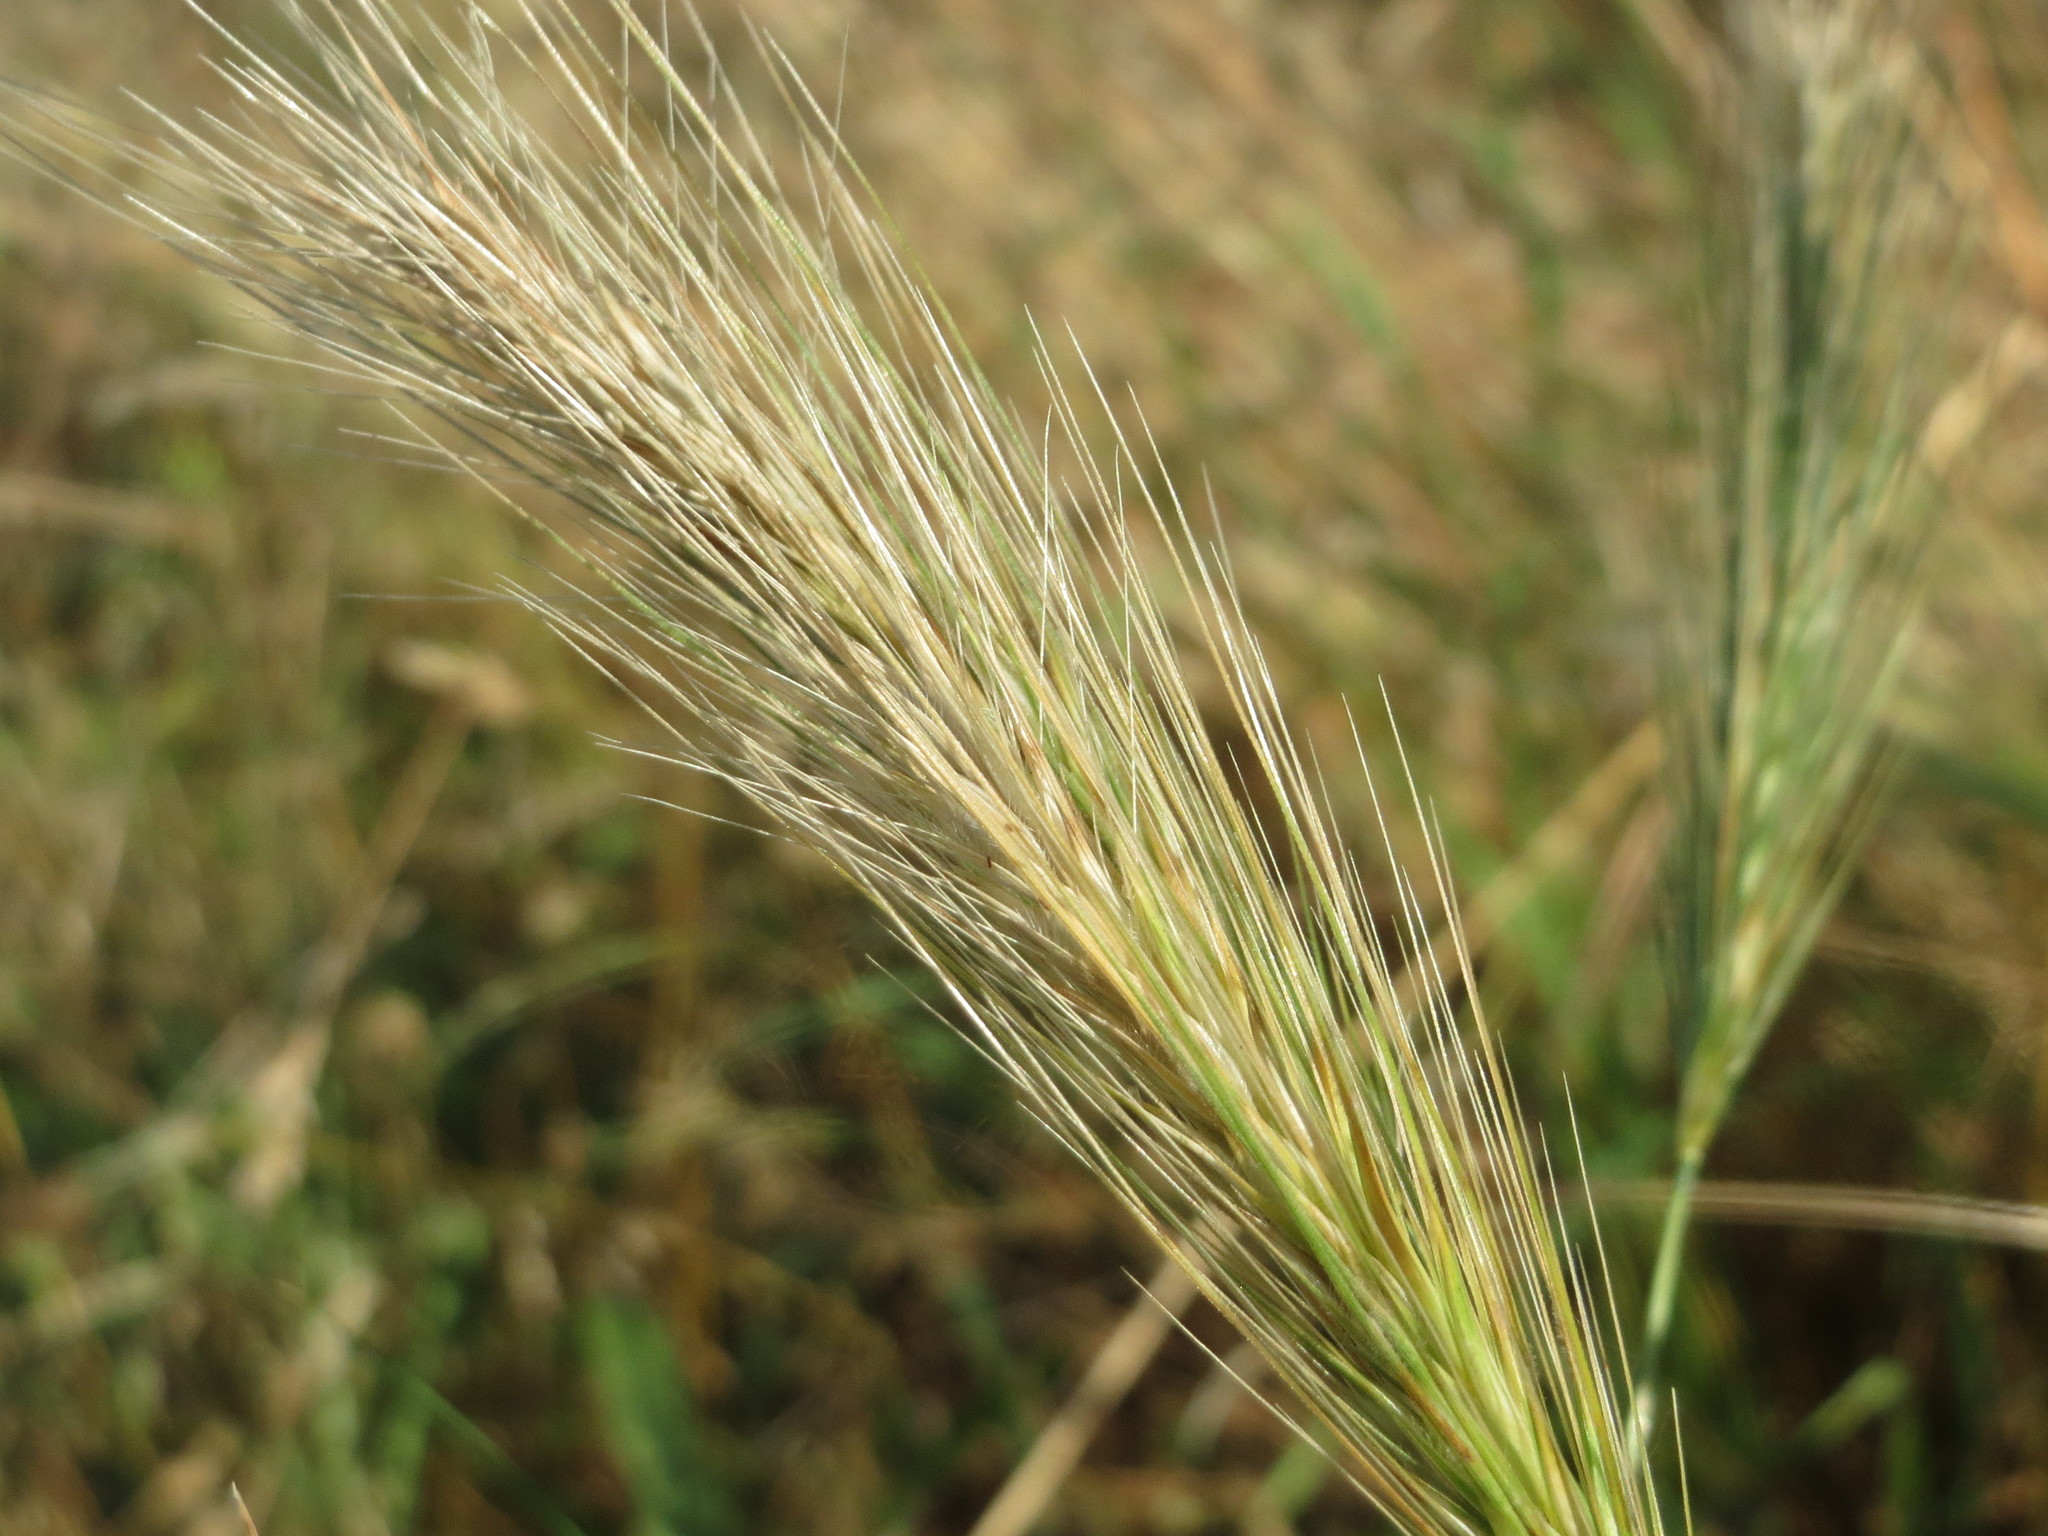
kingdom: Plantae
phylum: Tracheophyta
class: Liliopsida
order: Poales
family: Poaceae
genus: Hordeum
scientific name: Hordeum murinum
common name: Wall barley
